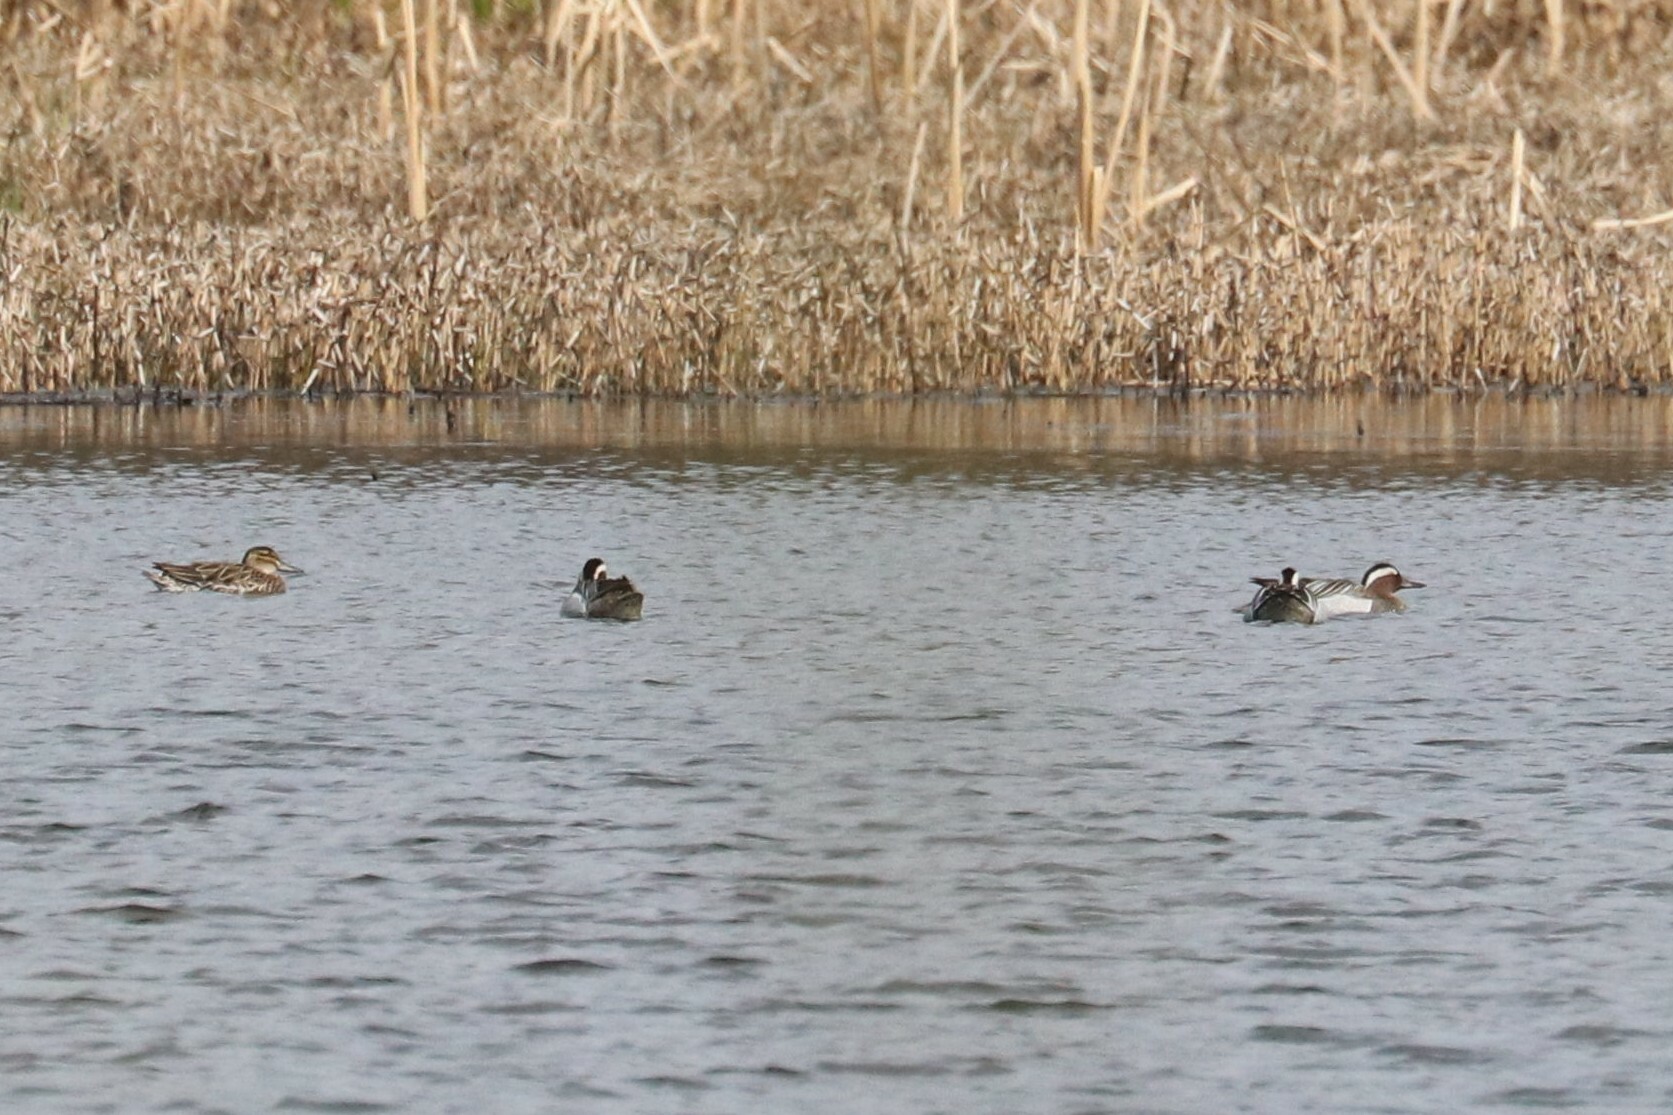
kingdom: Animalia
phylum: Chordata
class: Aves
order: Anseriformes
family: Anatidae
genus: Spatula
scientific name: Spatula querquedula
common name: Garganey
